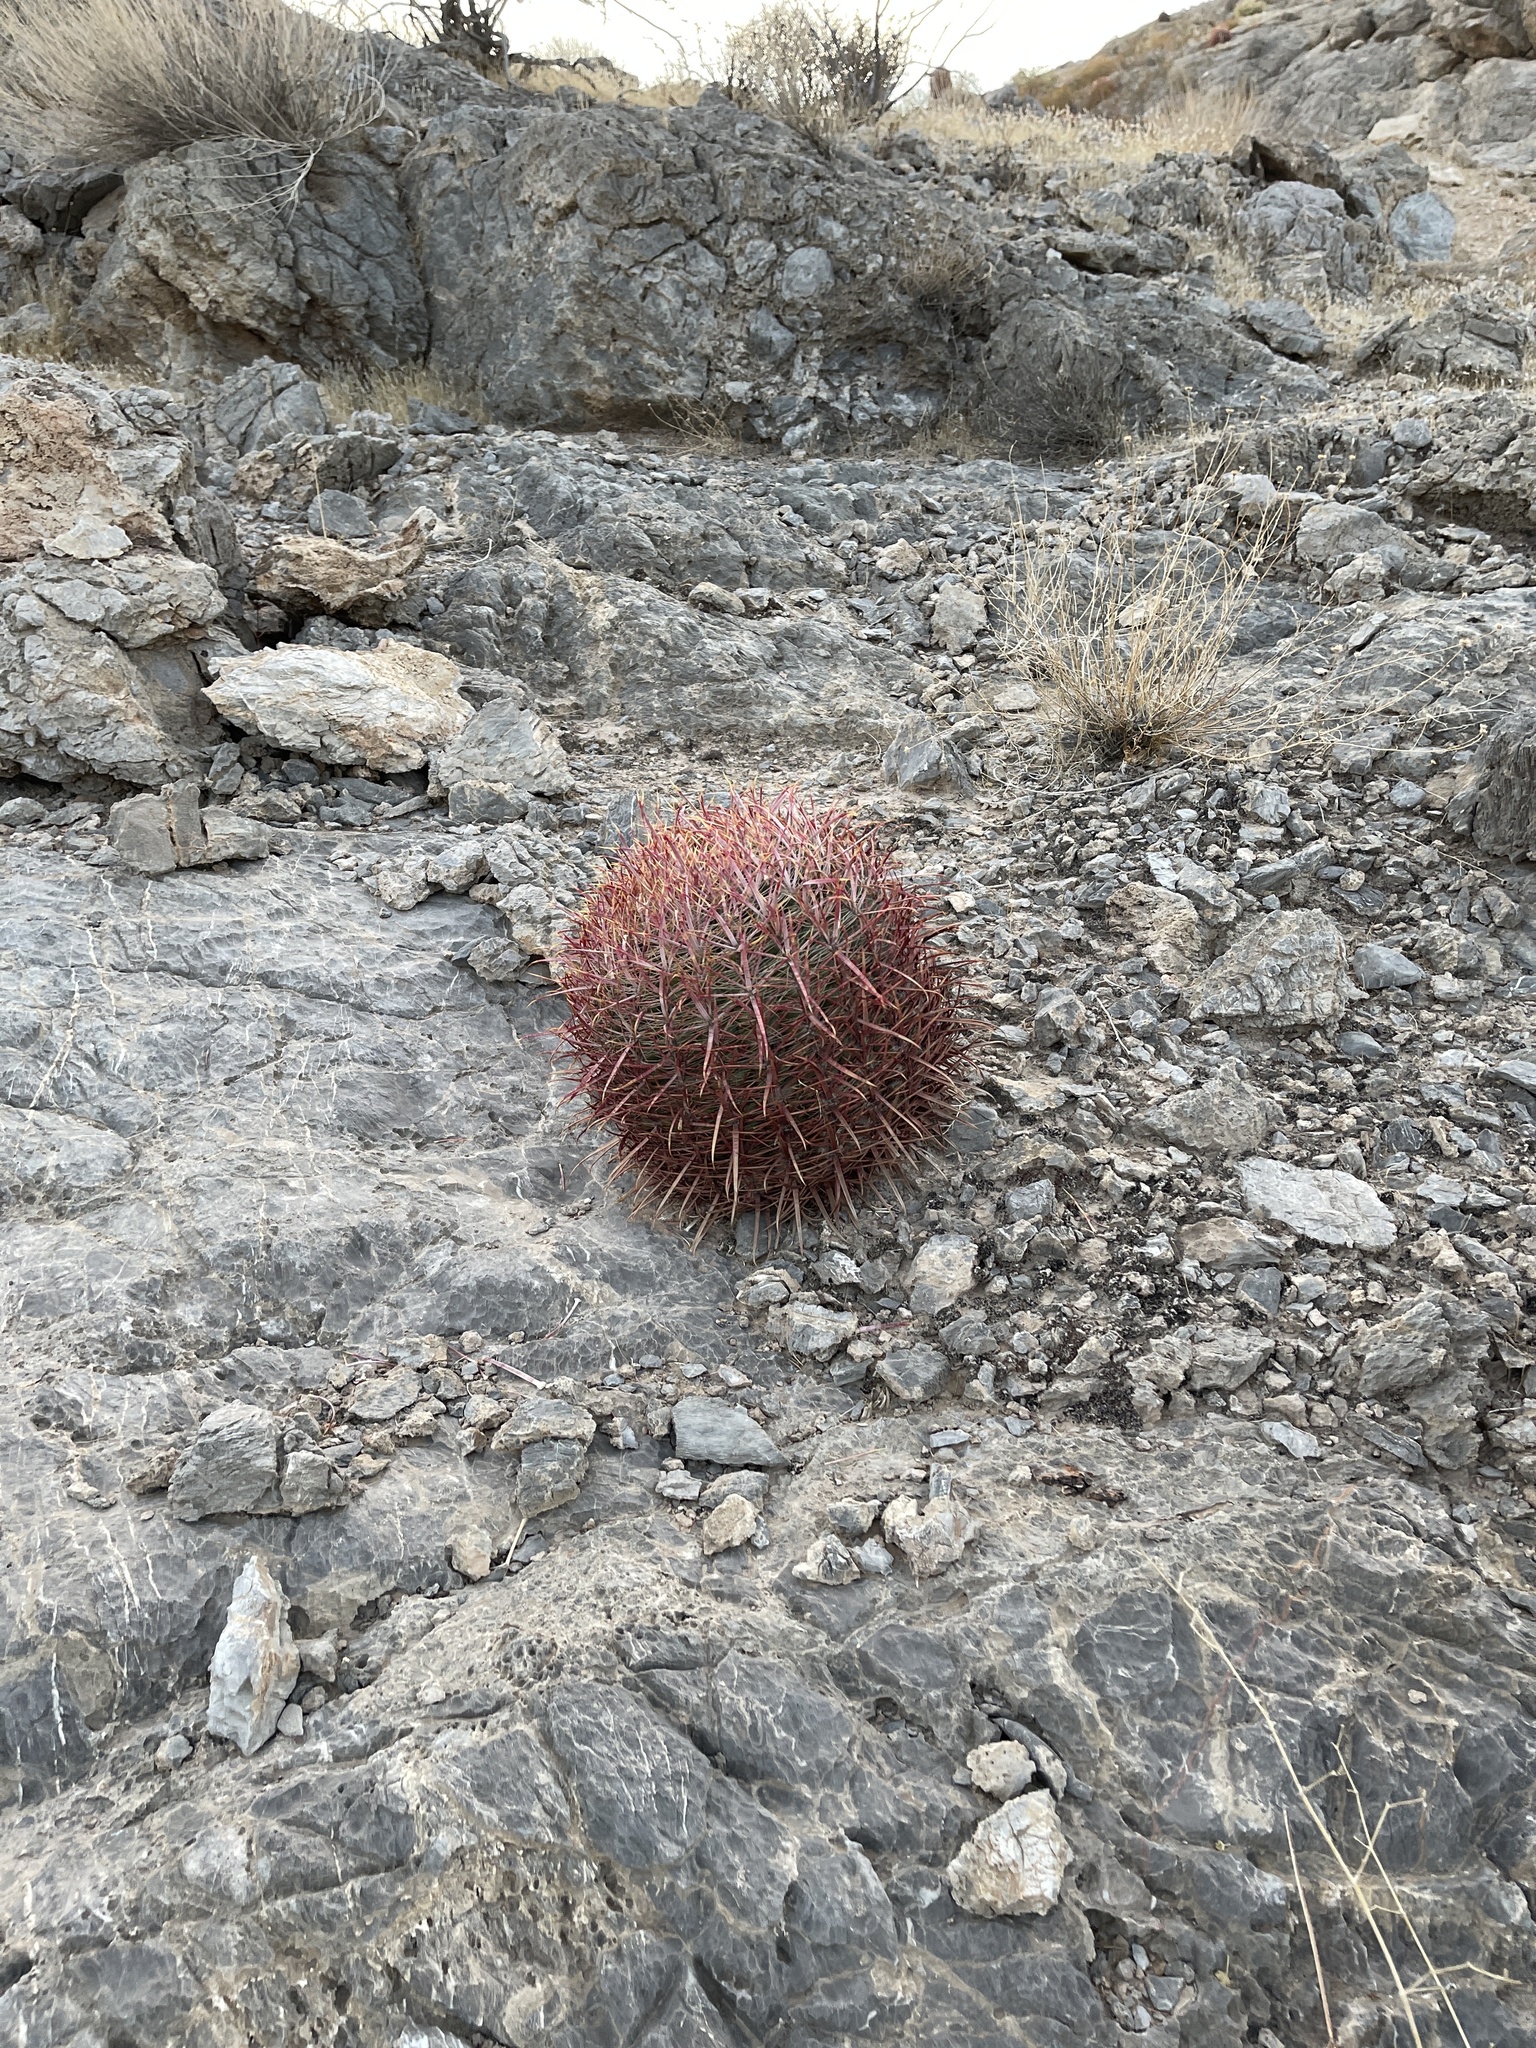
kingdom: Plantae
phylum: Tracheophyta
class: Magnoliopsida
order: Caryophyllales
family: Cactaceae
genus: Ferocactus
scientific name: Ferocactus cylindraceus
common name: California barrel cactus
